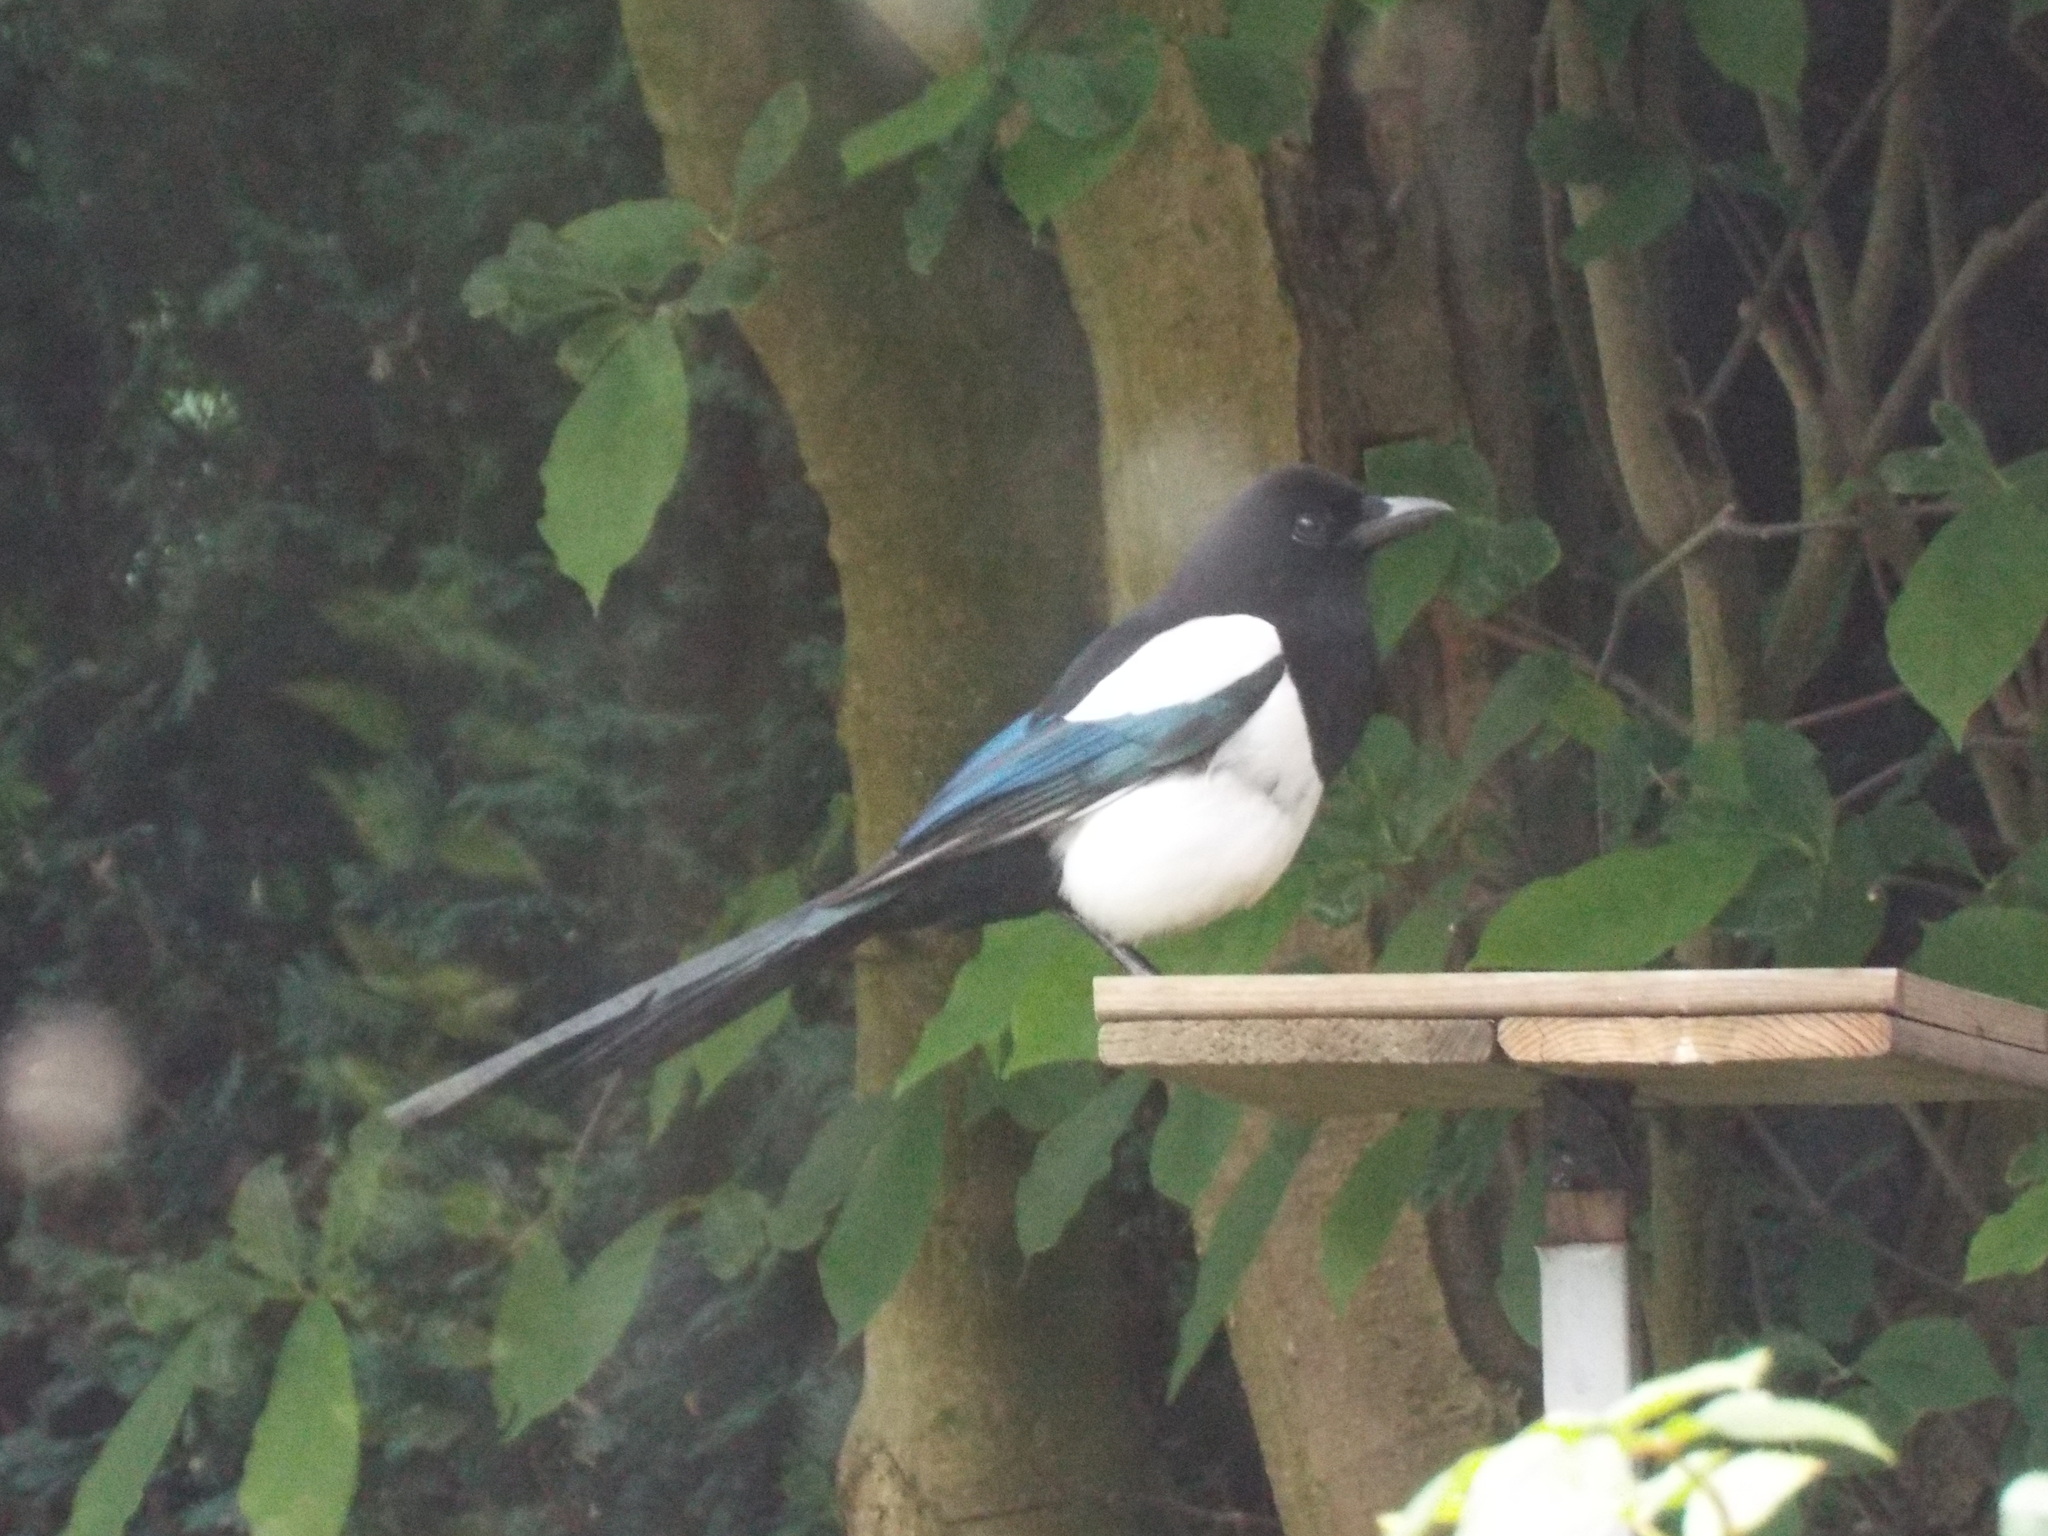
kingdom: Animalia
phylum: Chordata
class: Aves
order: Passeriformes
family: Corvidae
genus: Pica
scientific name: Pica pica
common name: Eurasian magpie
